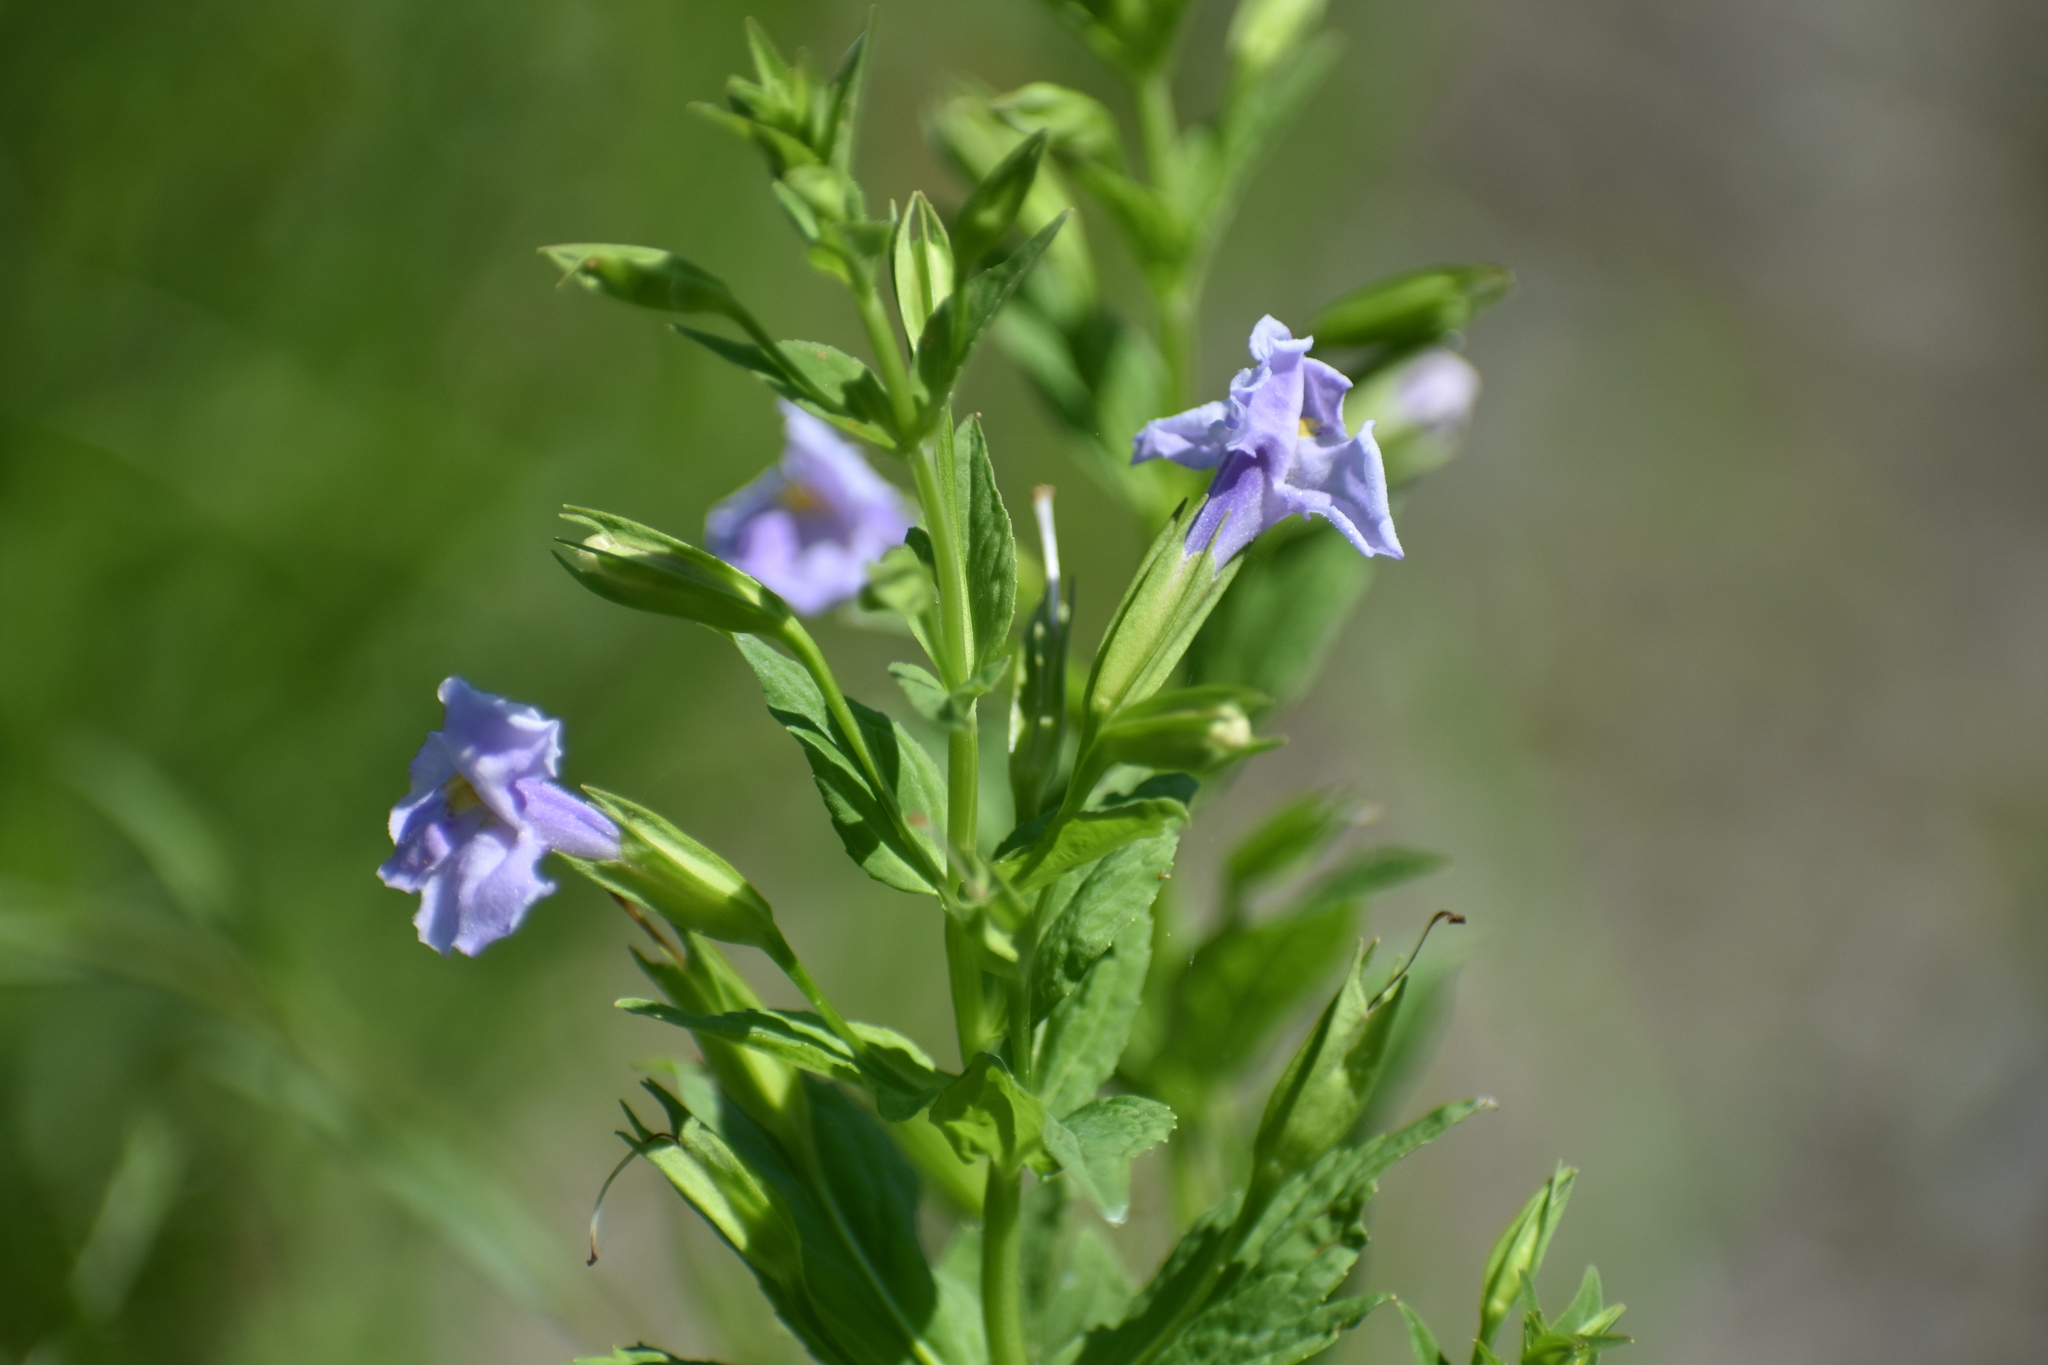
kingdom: Plantae
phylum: Tracheophyta
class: Magnoliopsida
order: Lamiales
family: Phrymaceae
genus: Mimulus
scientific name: Mimulus ringens
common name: Allegheny monkeyflower
